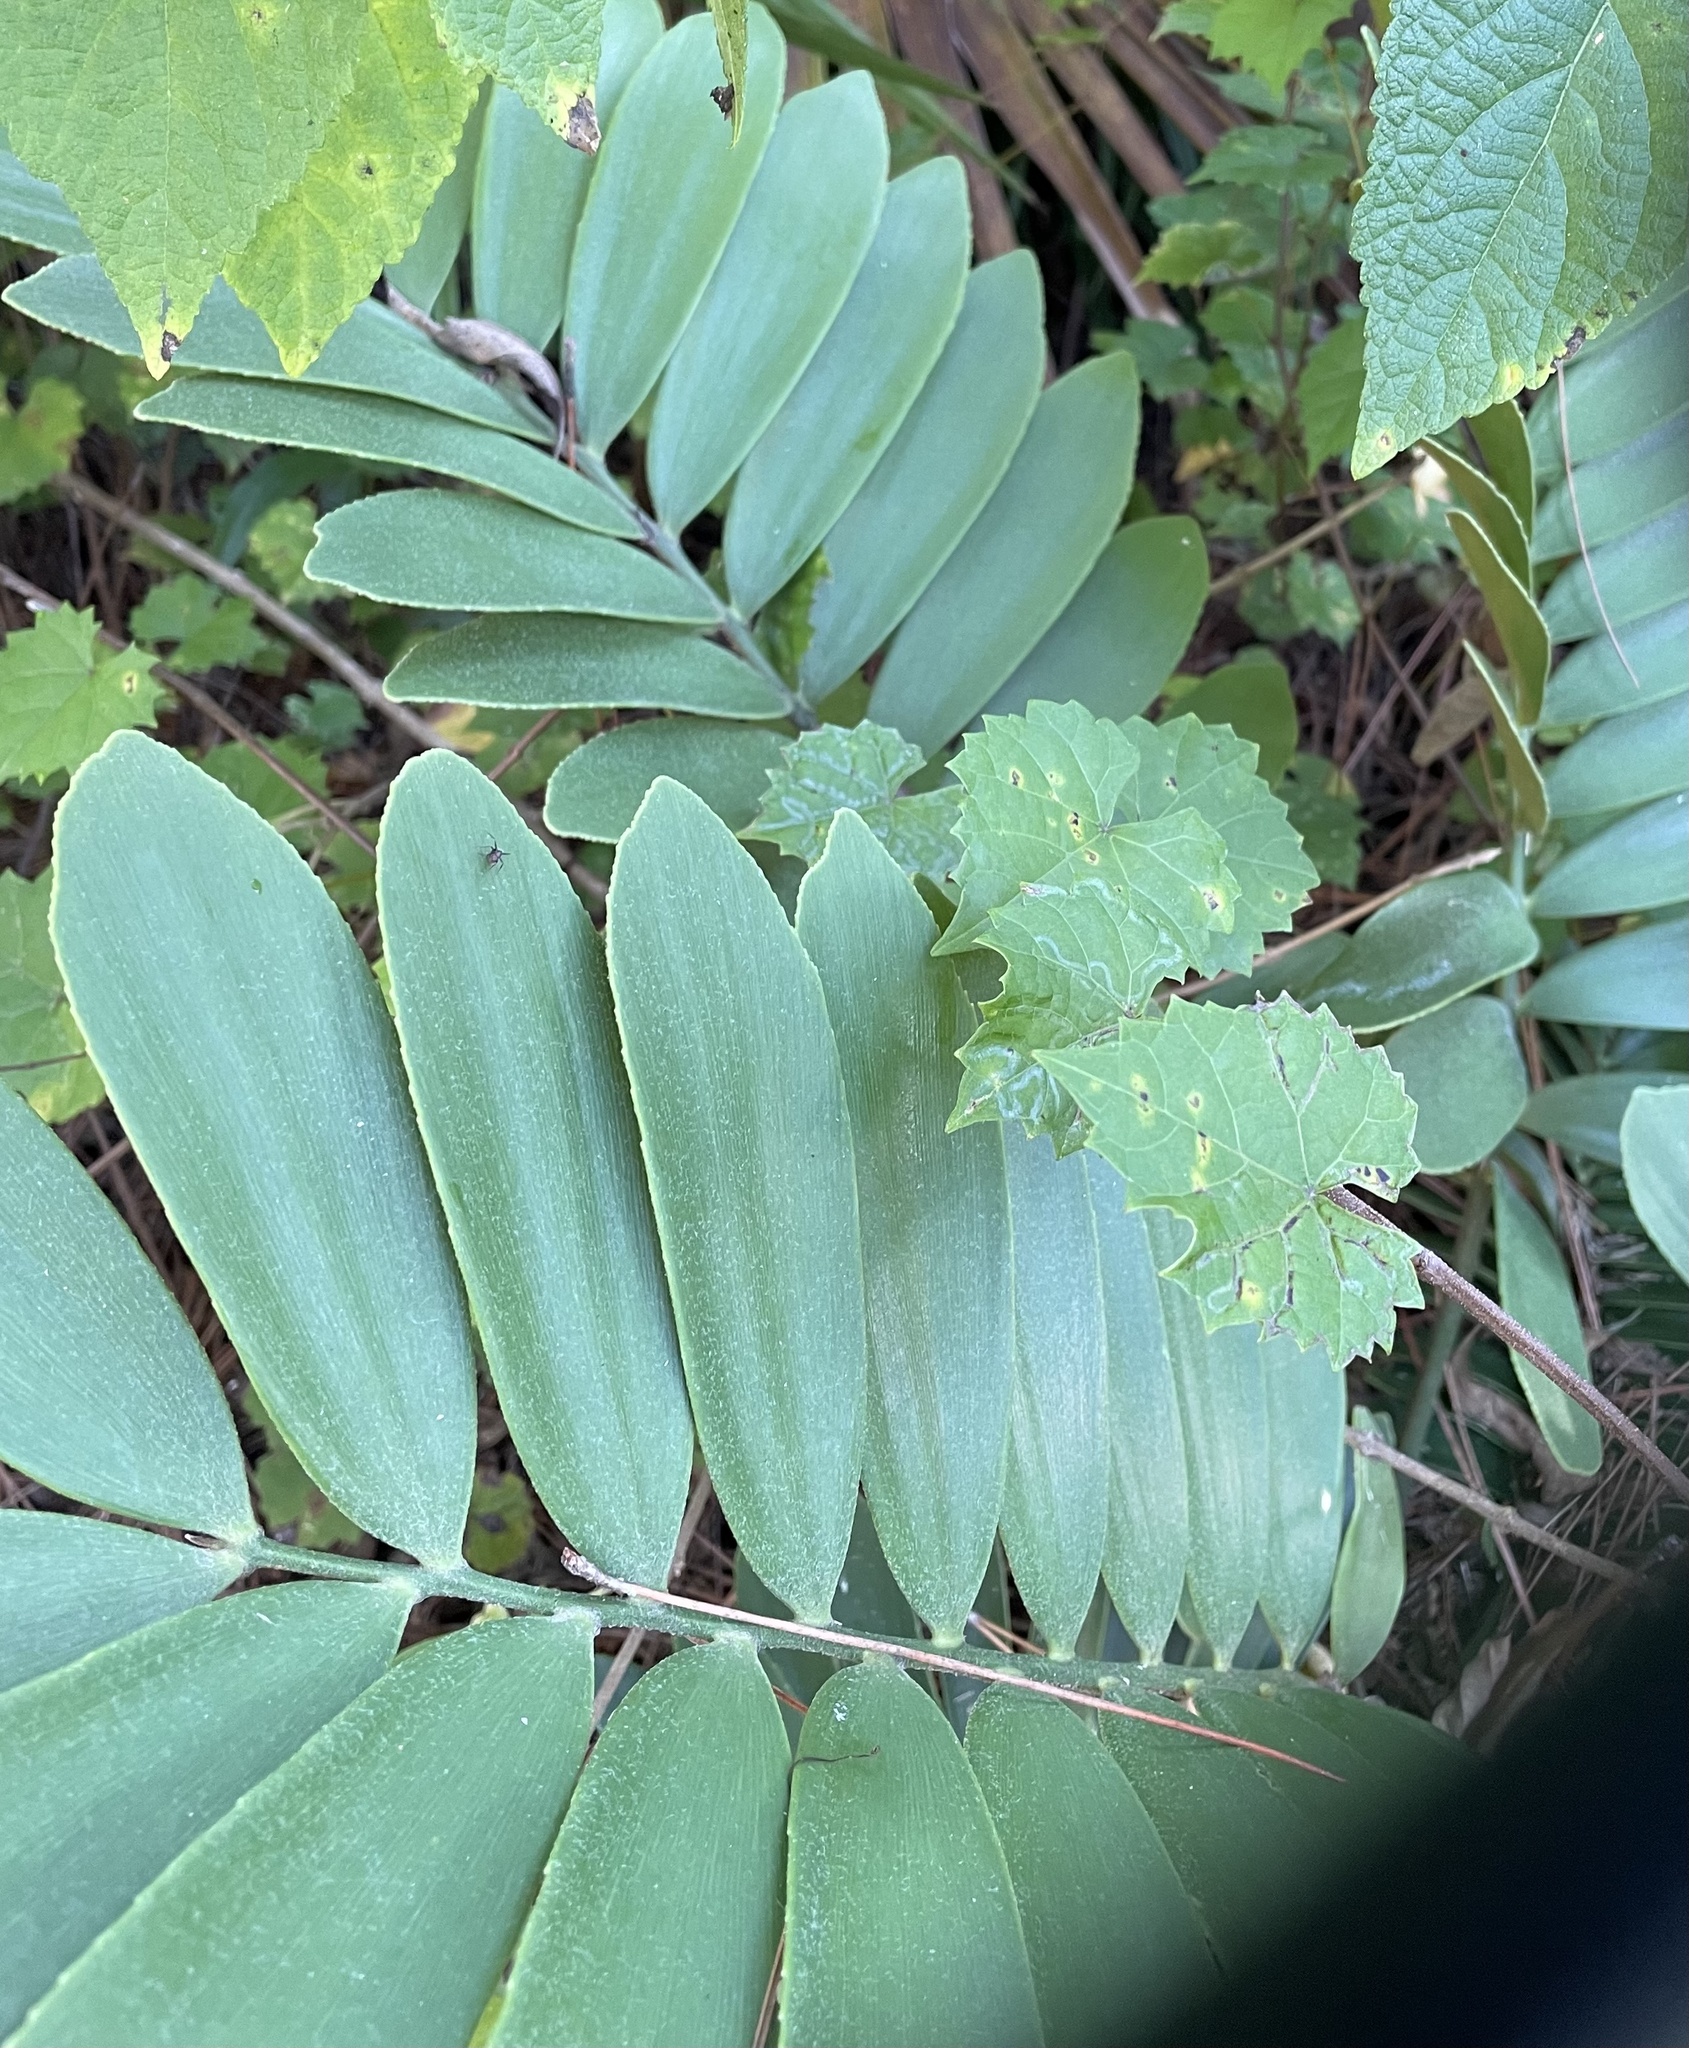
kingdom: Plantae
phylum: Tracheophyta
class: Cycadopsida
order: Cycadales
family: Zamiaceae
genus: Zamia
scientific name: Zamia furfuracea
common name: Cardboard palm
